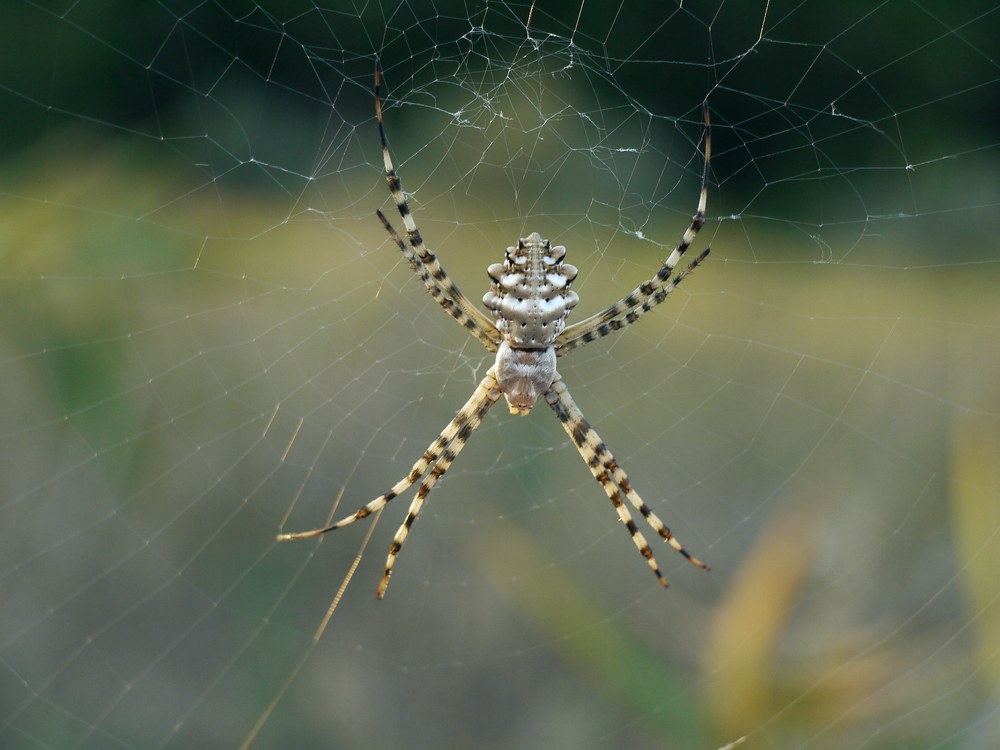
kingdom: Animalia
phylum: Arthropoda
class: Arachnida
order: Araneae
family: Araneidae
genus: Argiope
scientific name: Argiope lobata
